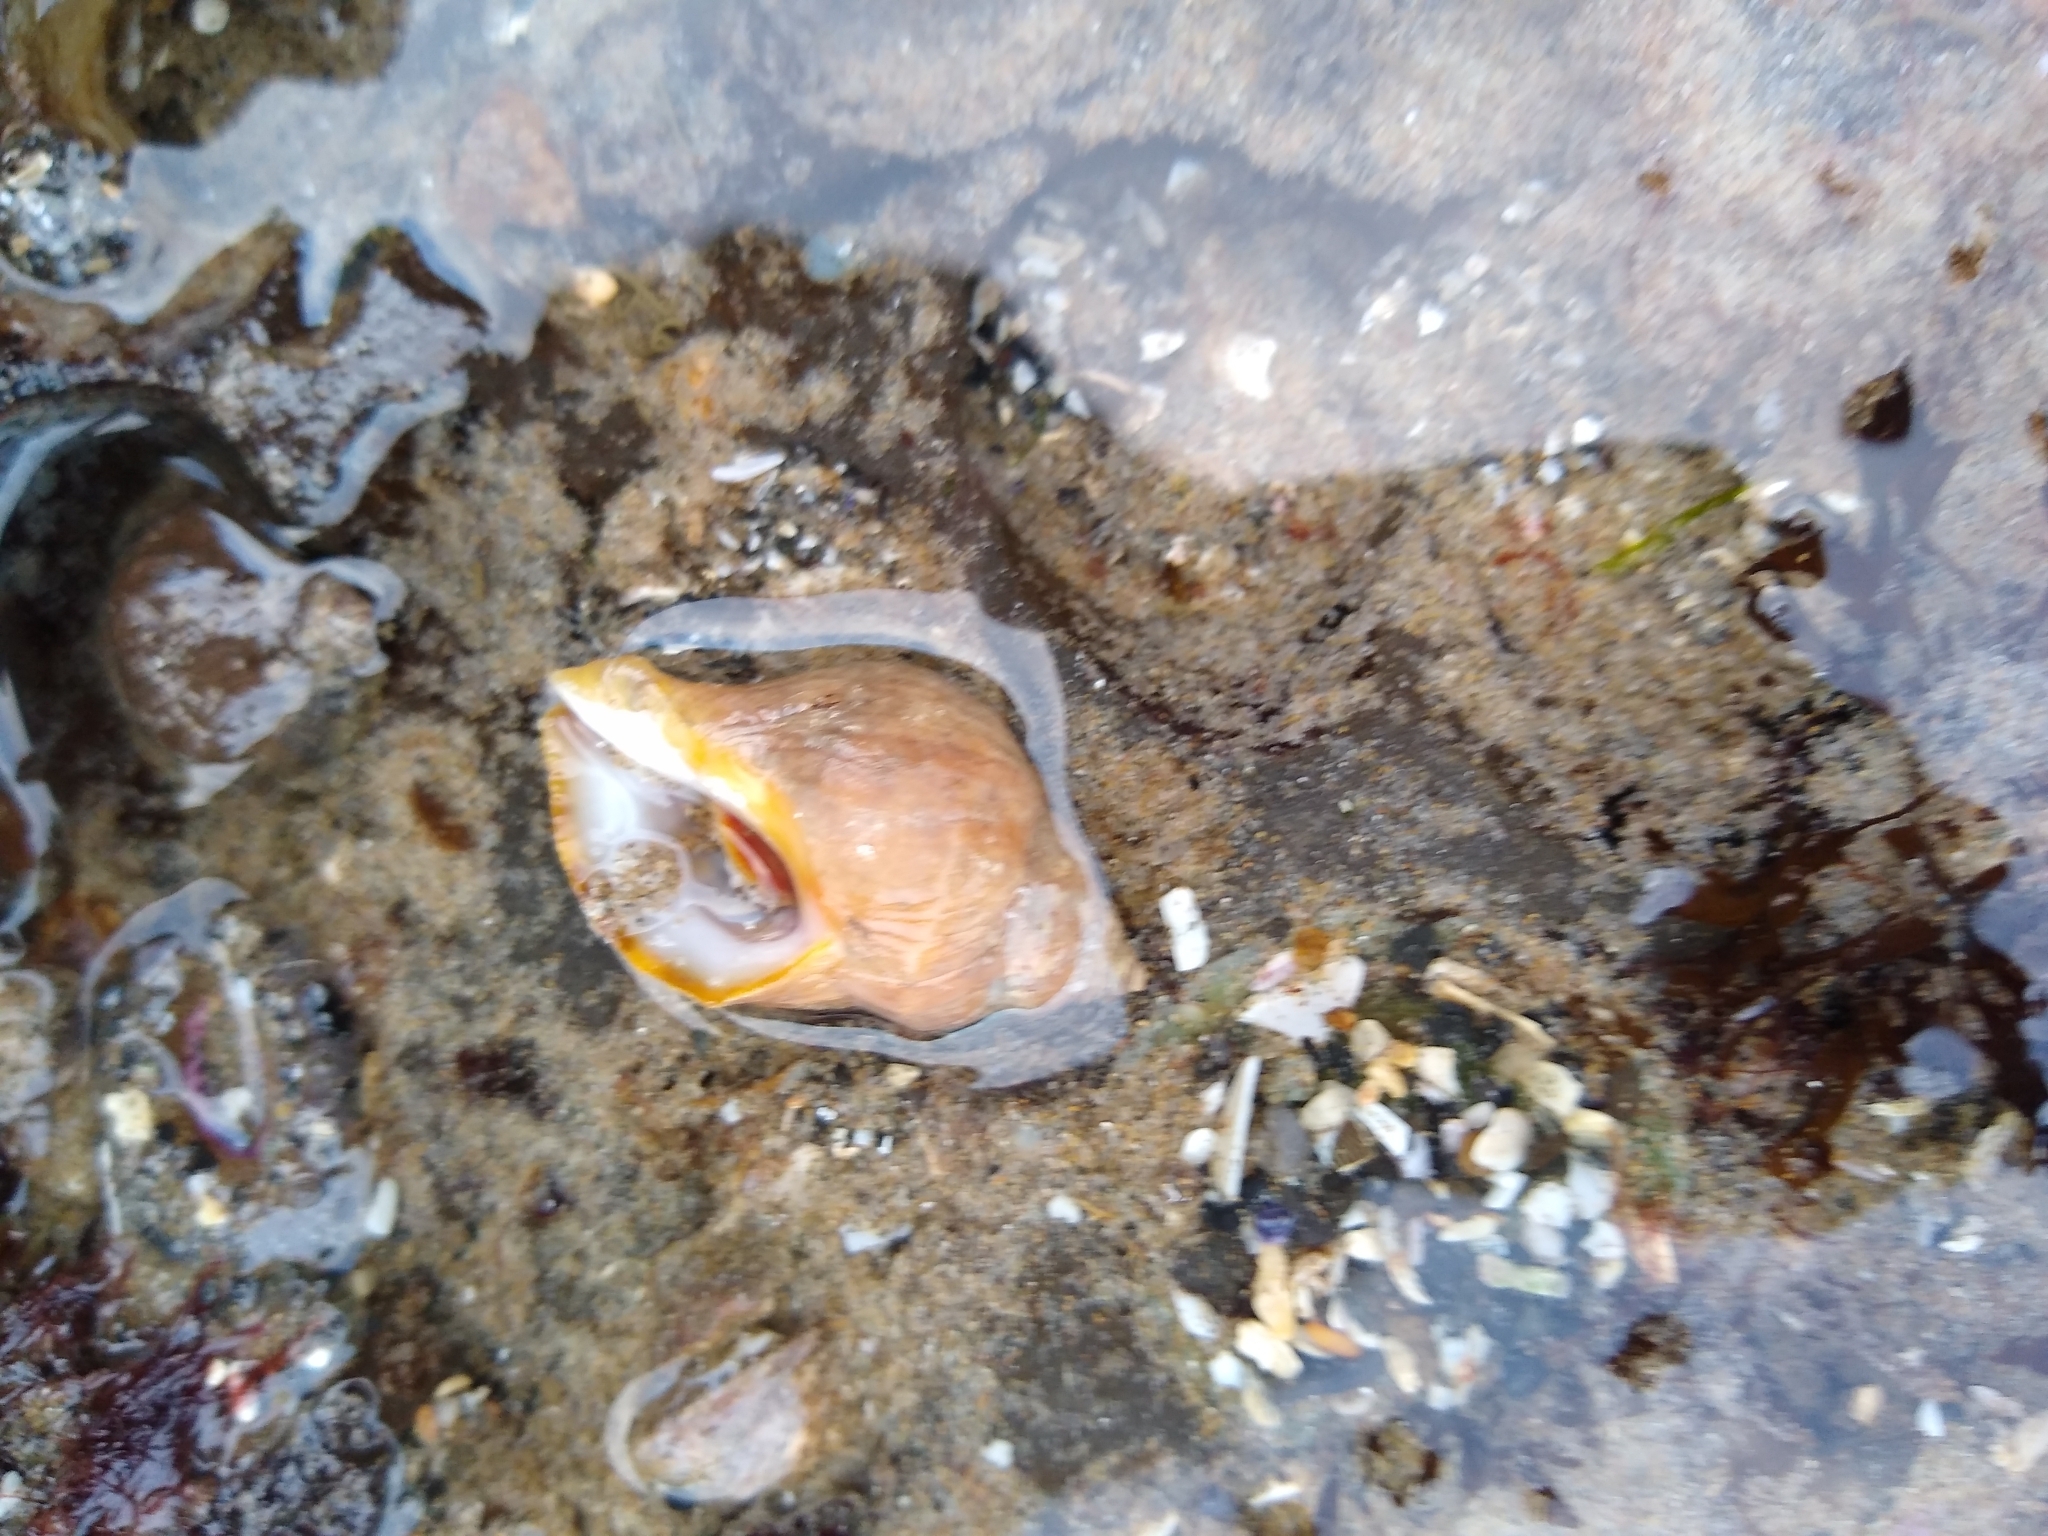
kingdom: Animalia
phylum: Mollusca
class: Gastropoda
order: Neogastropoda
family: Muricidae
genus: Nucella
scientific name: Nucella lamellosa
